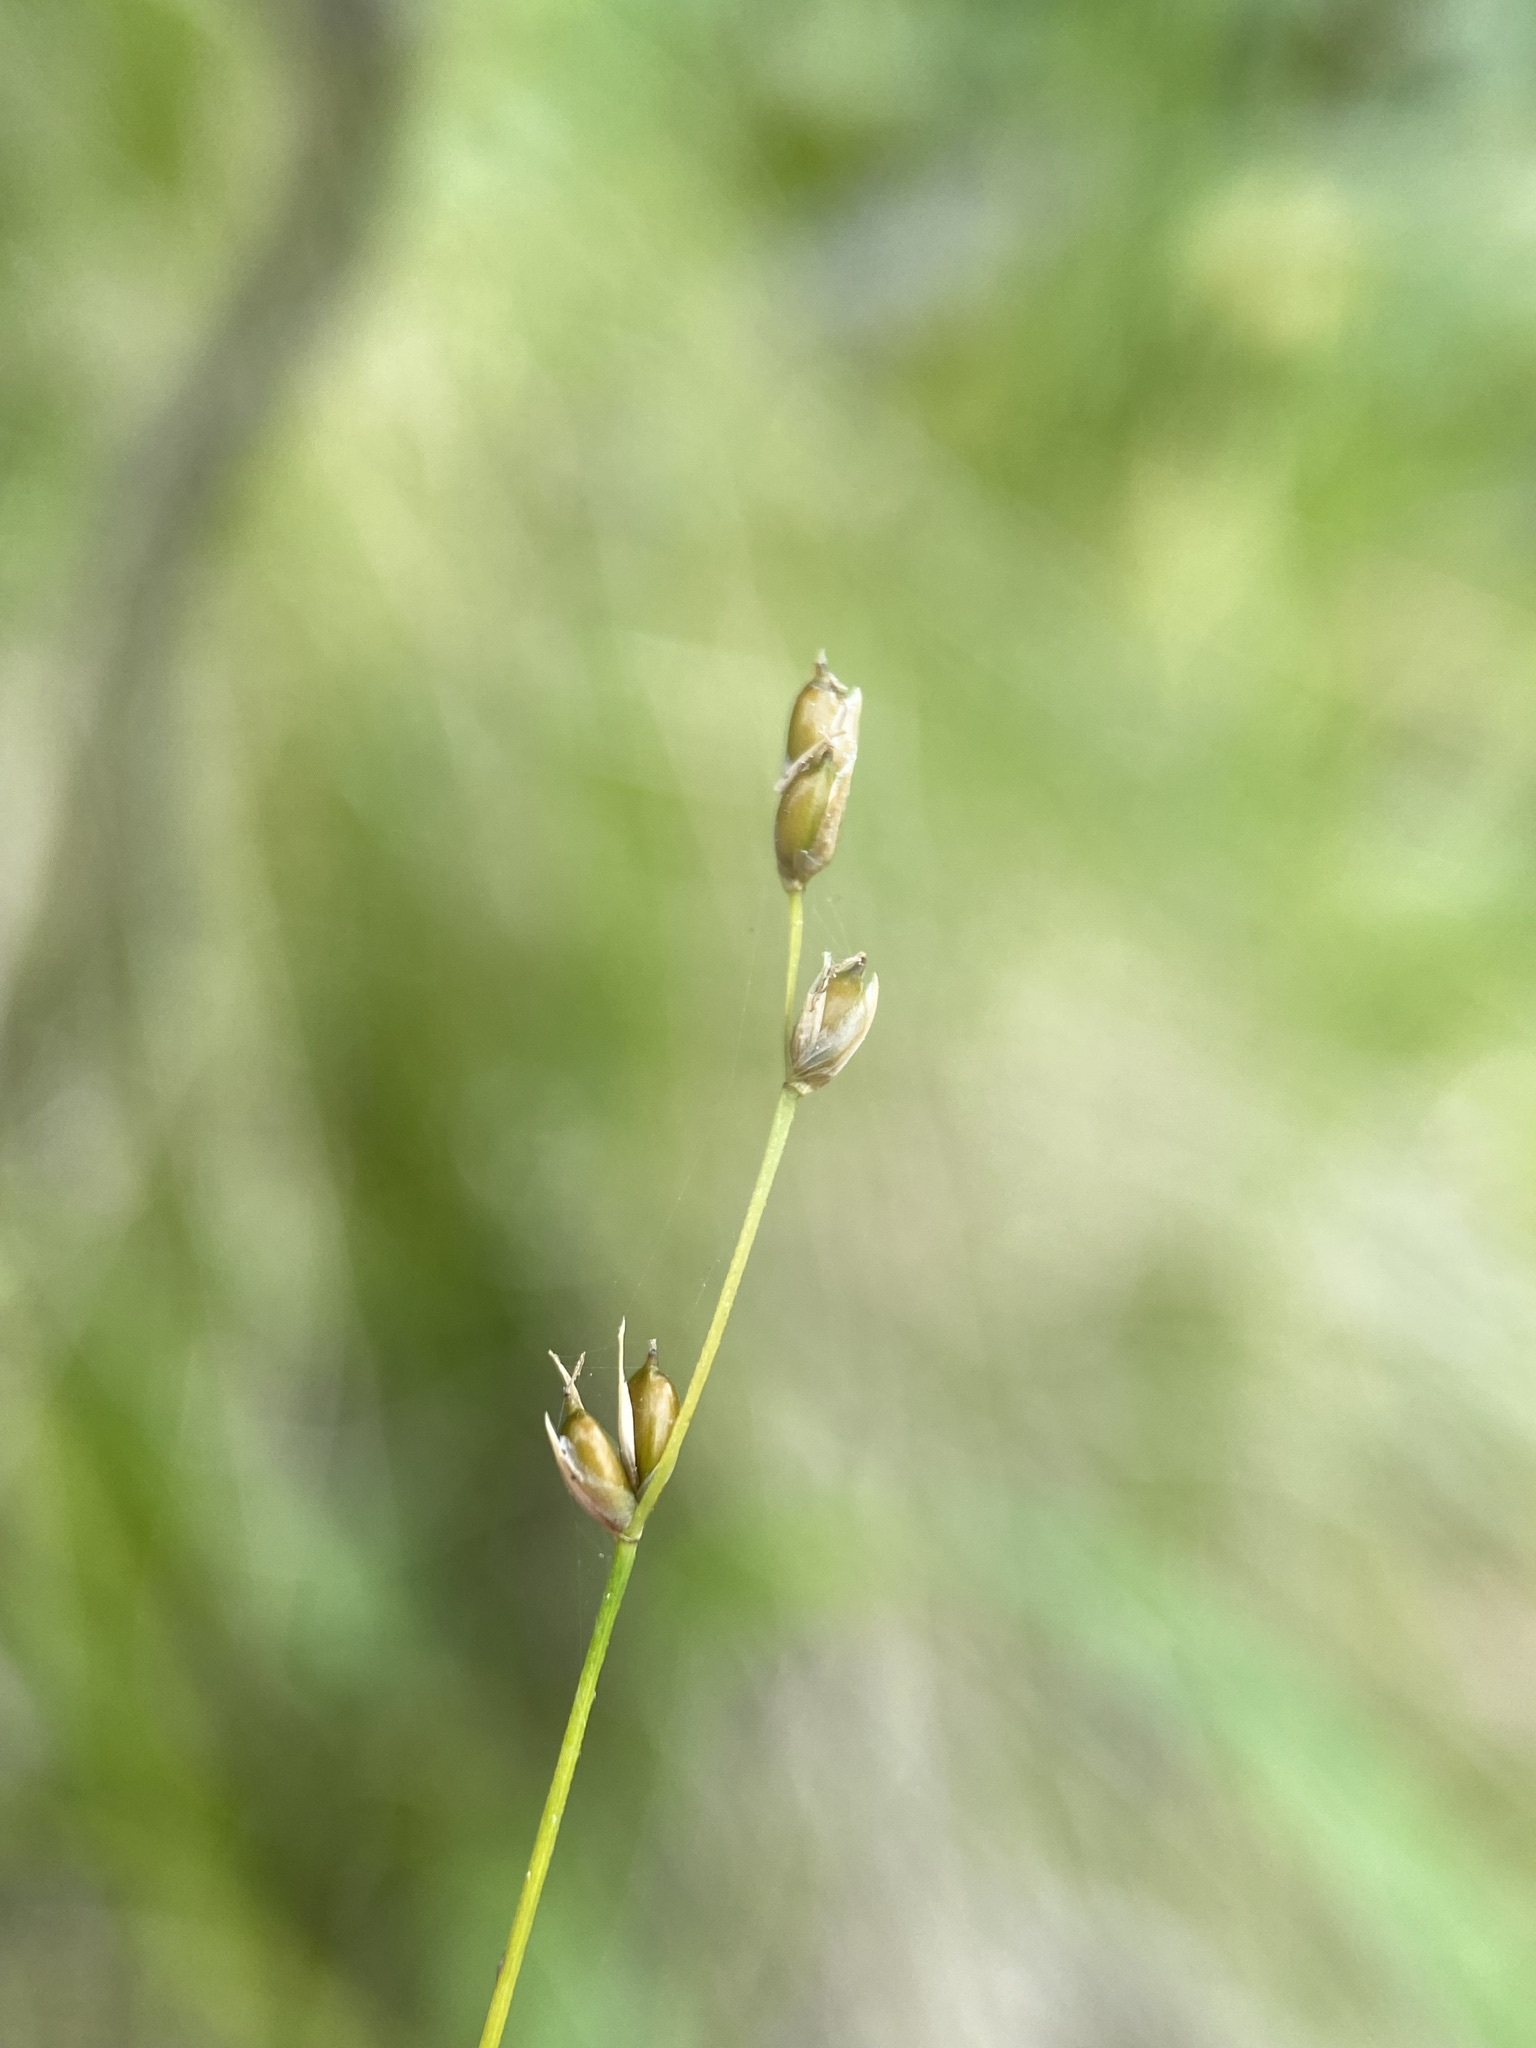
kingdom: Plantae
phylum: Tracheophyta
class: Liliopsida
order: Poales
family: Cyperaceae
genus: Carex
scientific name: Carex disperma
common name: Short-leaved sedge
